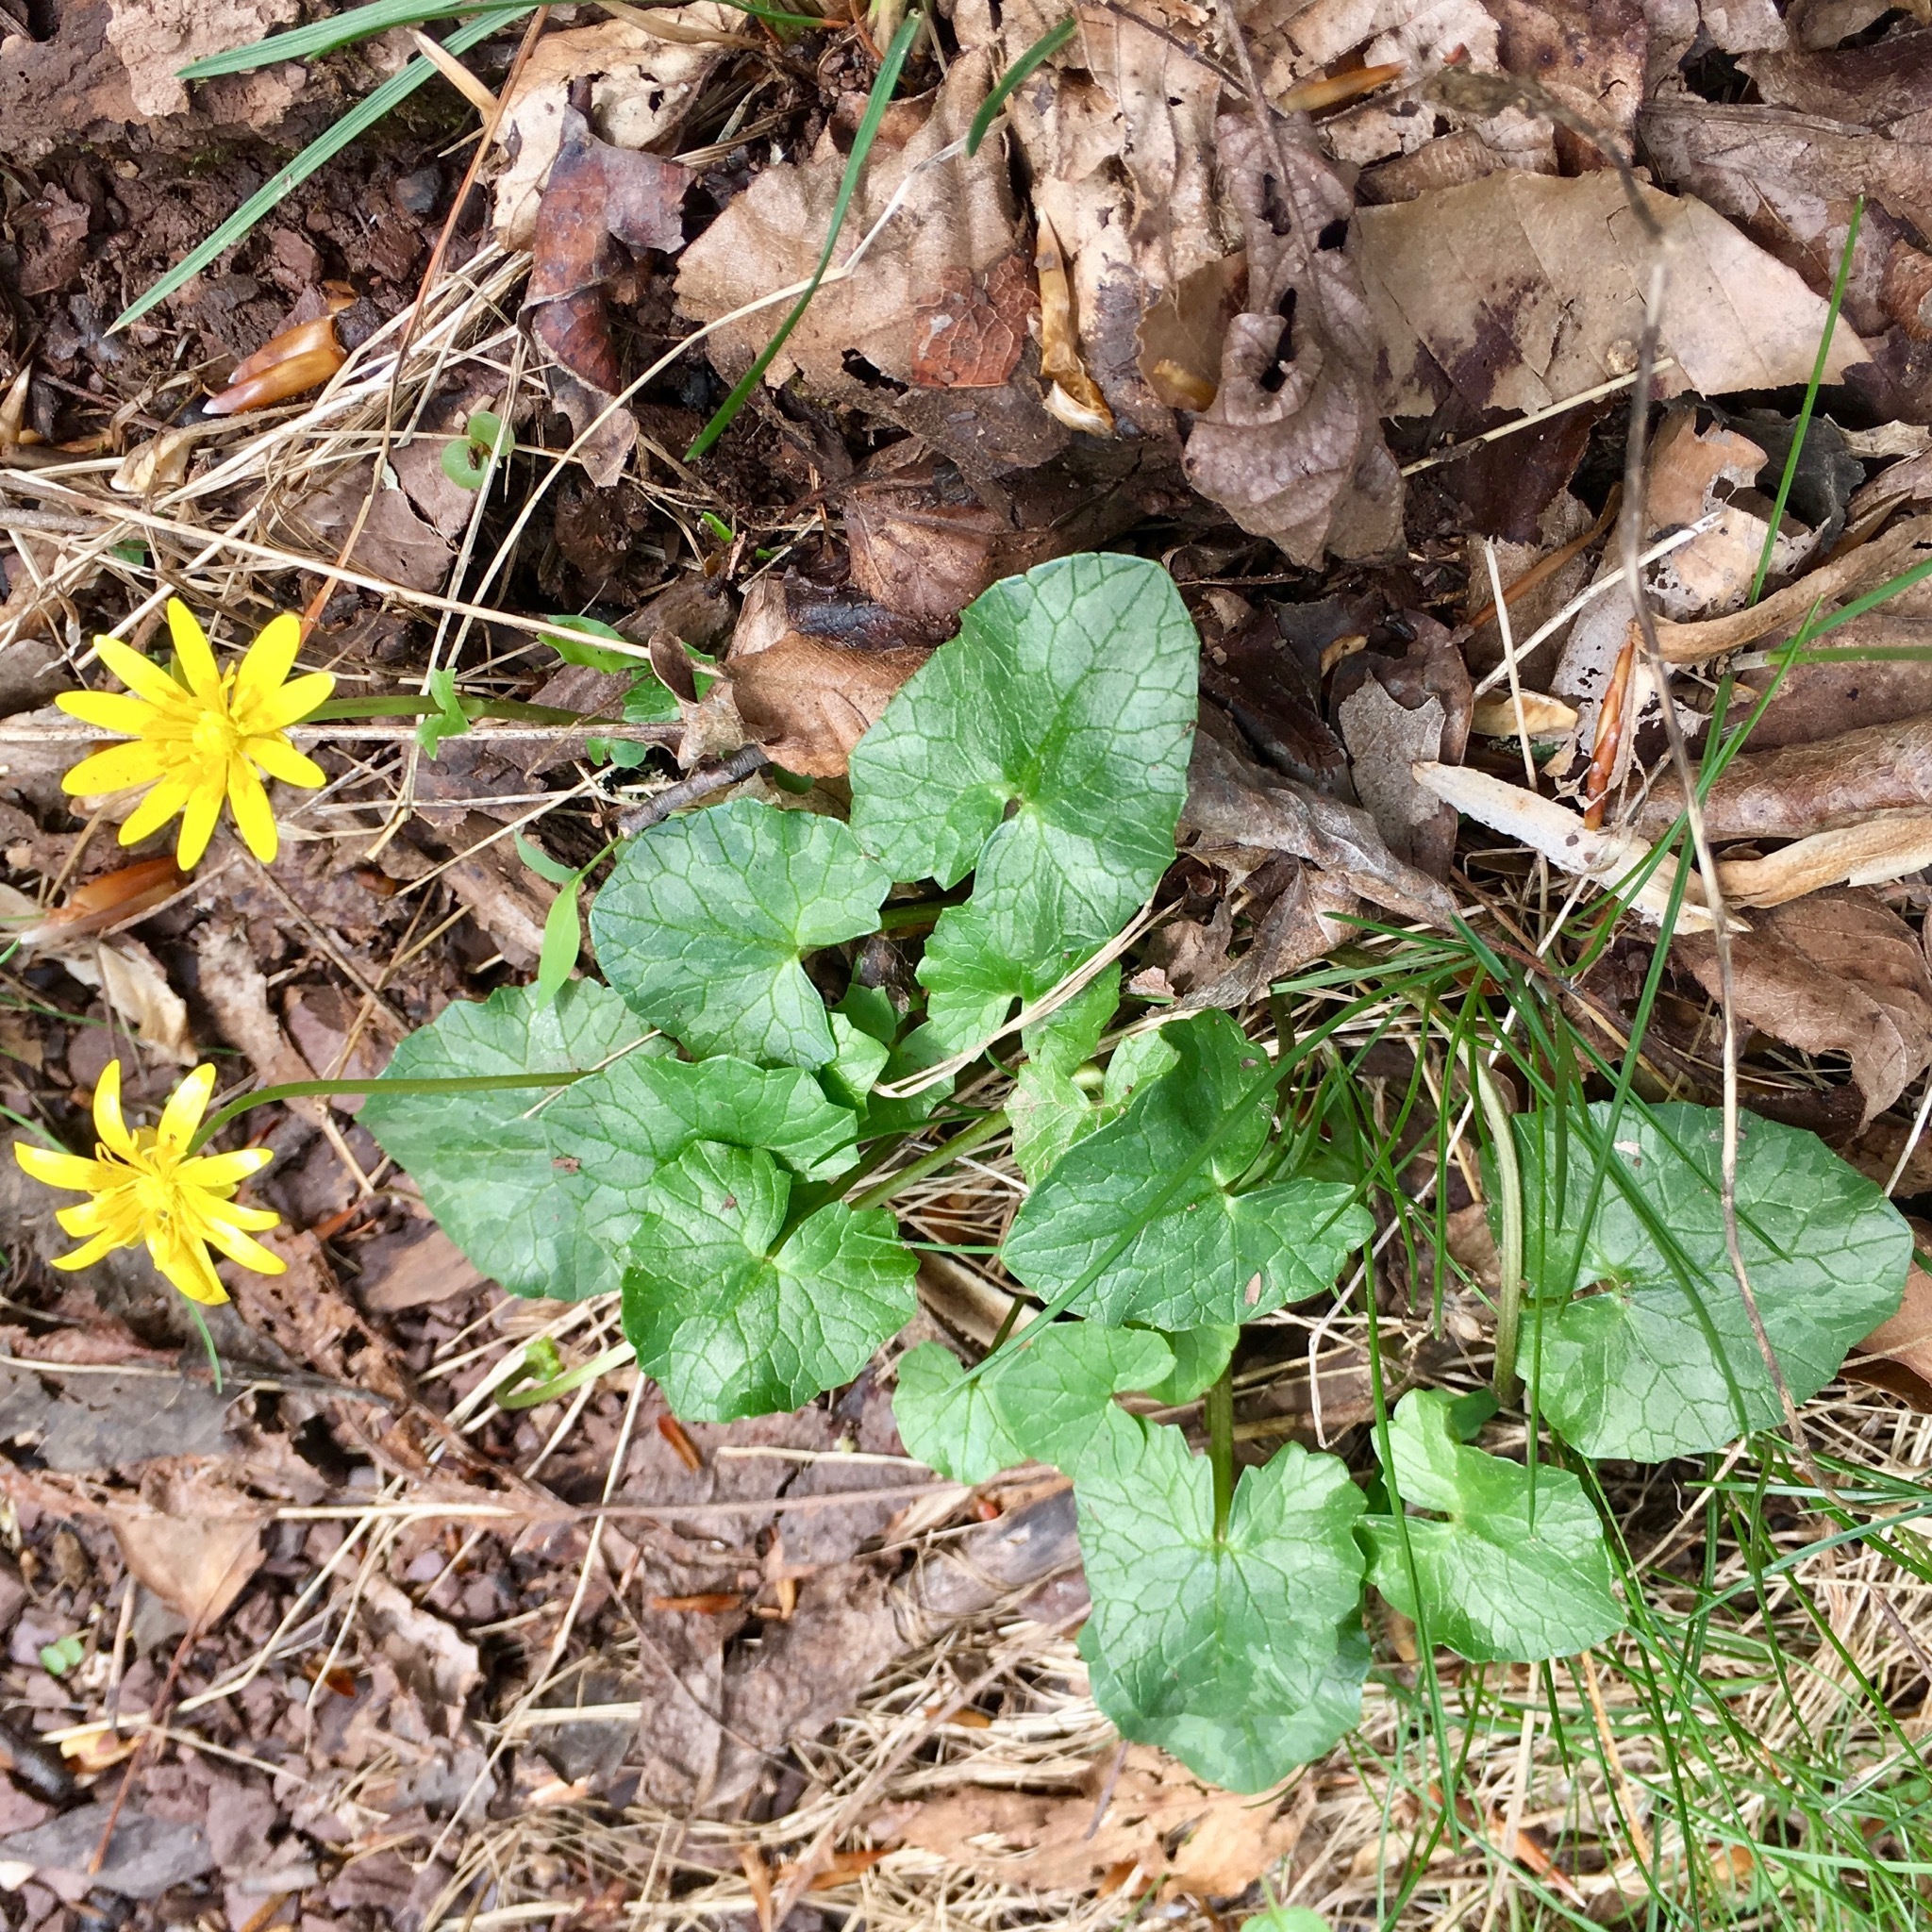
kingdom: Plantae
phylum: Tracheophyta
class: Magnoliopsida
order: Ranunculales
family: Ranunculaceae
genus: Ficaria
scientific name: Ficaria verna
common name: Lesser celandine
